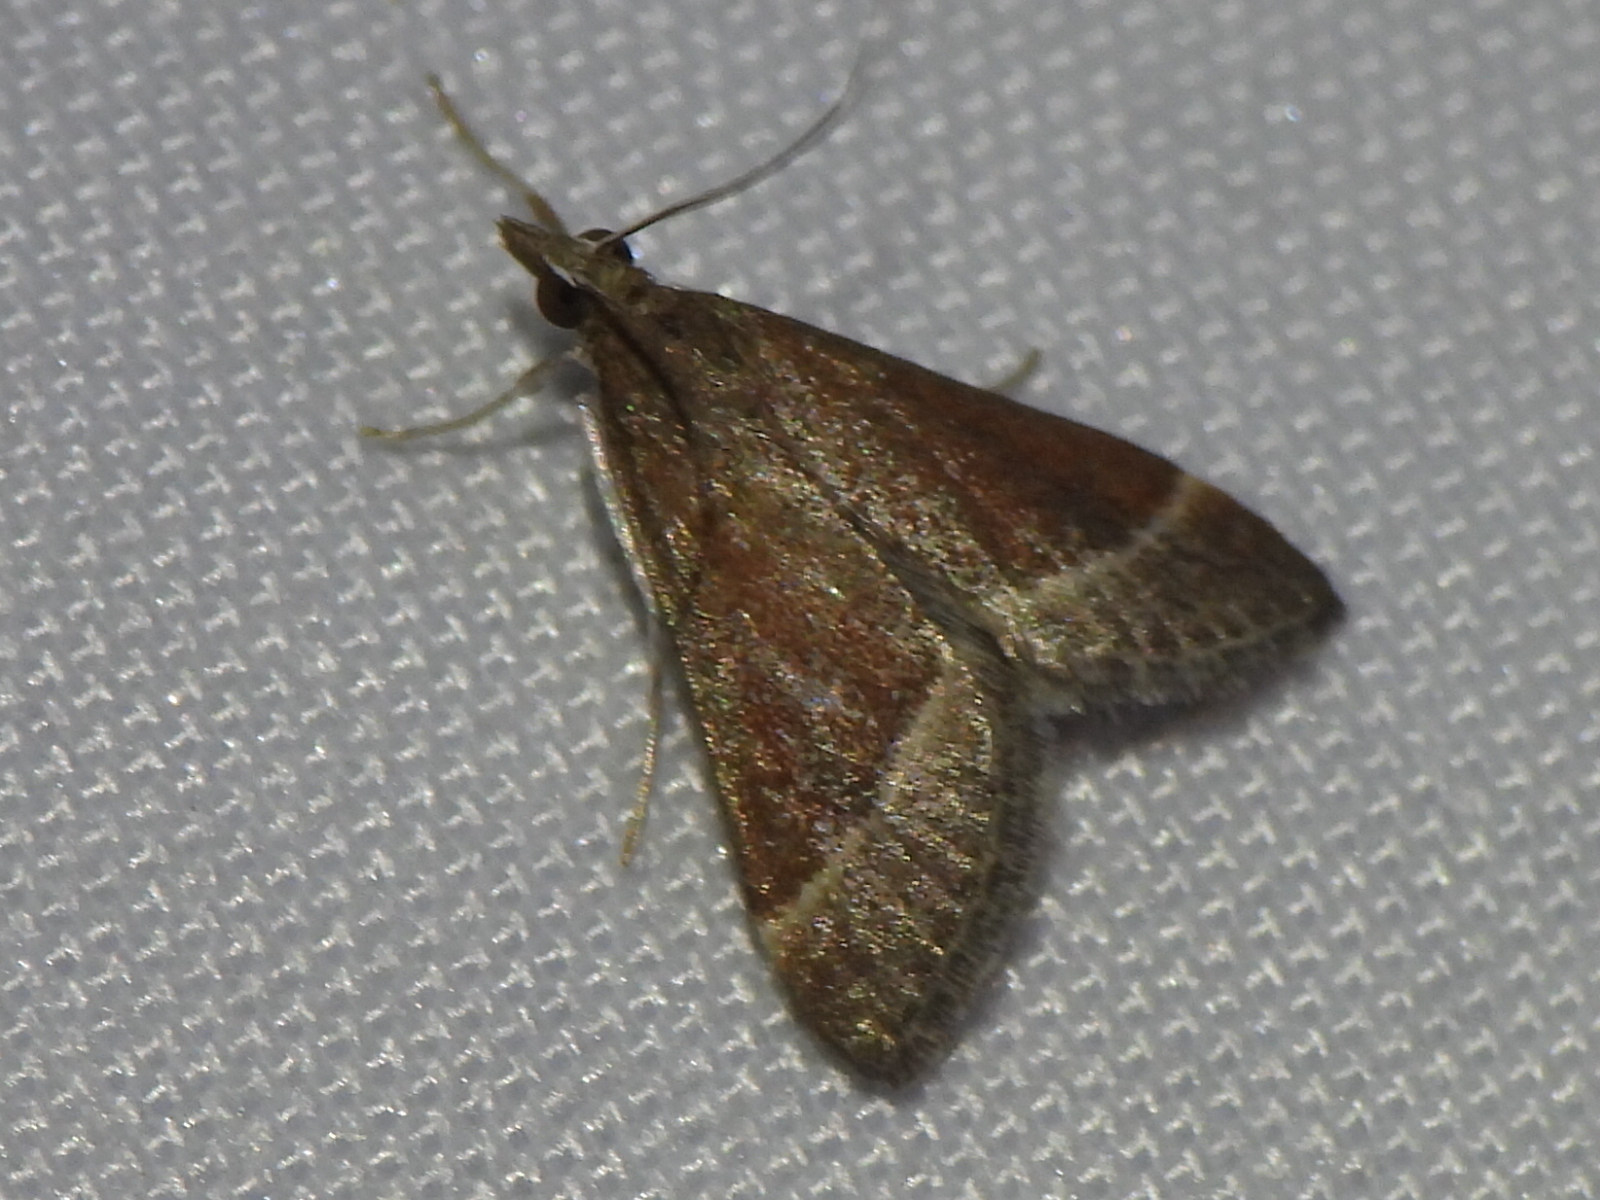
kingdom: Animalia
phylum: Arthropoda
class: Insecta
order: Lepidoptera
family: Crambidae
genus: Pyrausta
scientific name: Pyrausta lethalis
